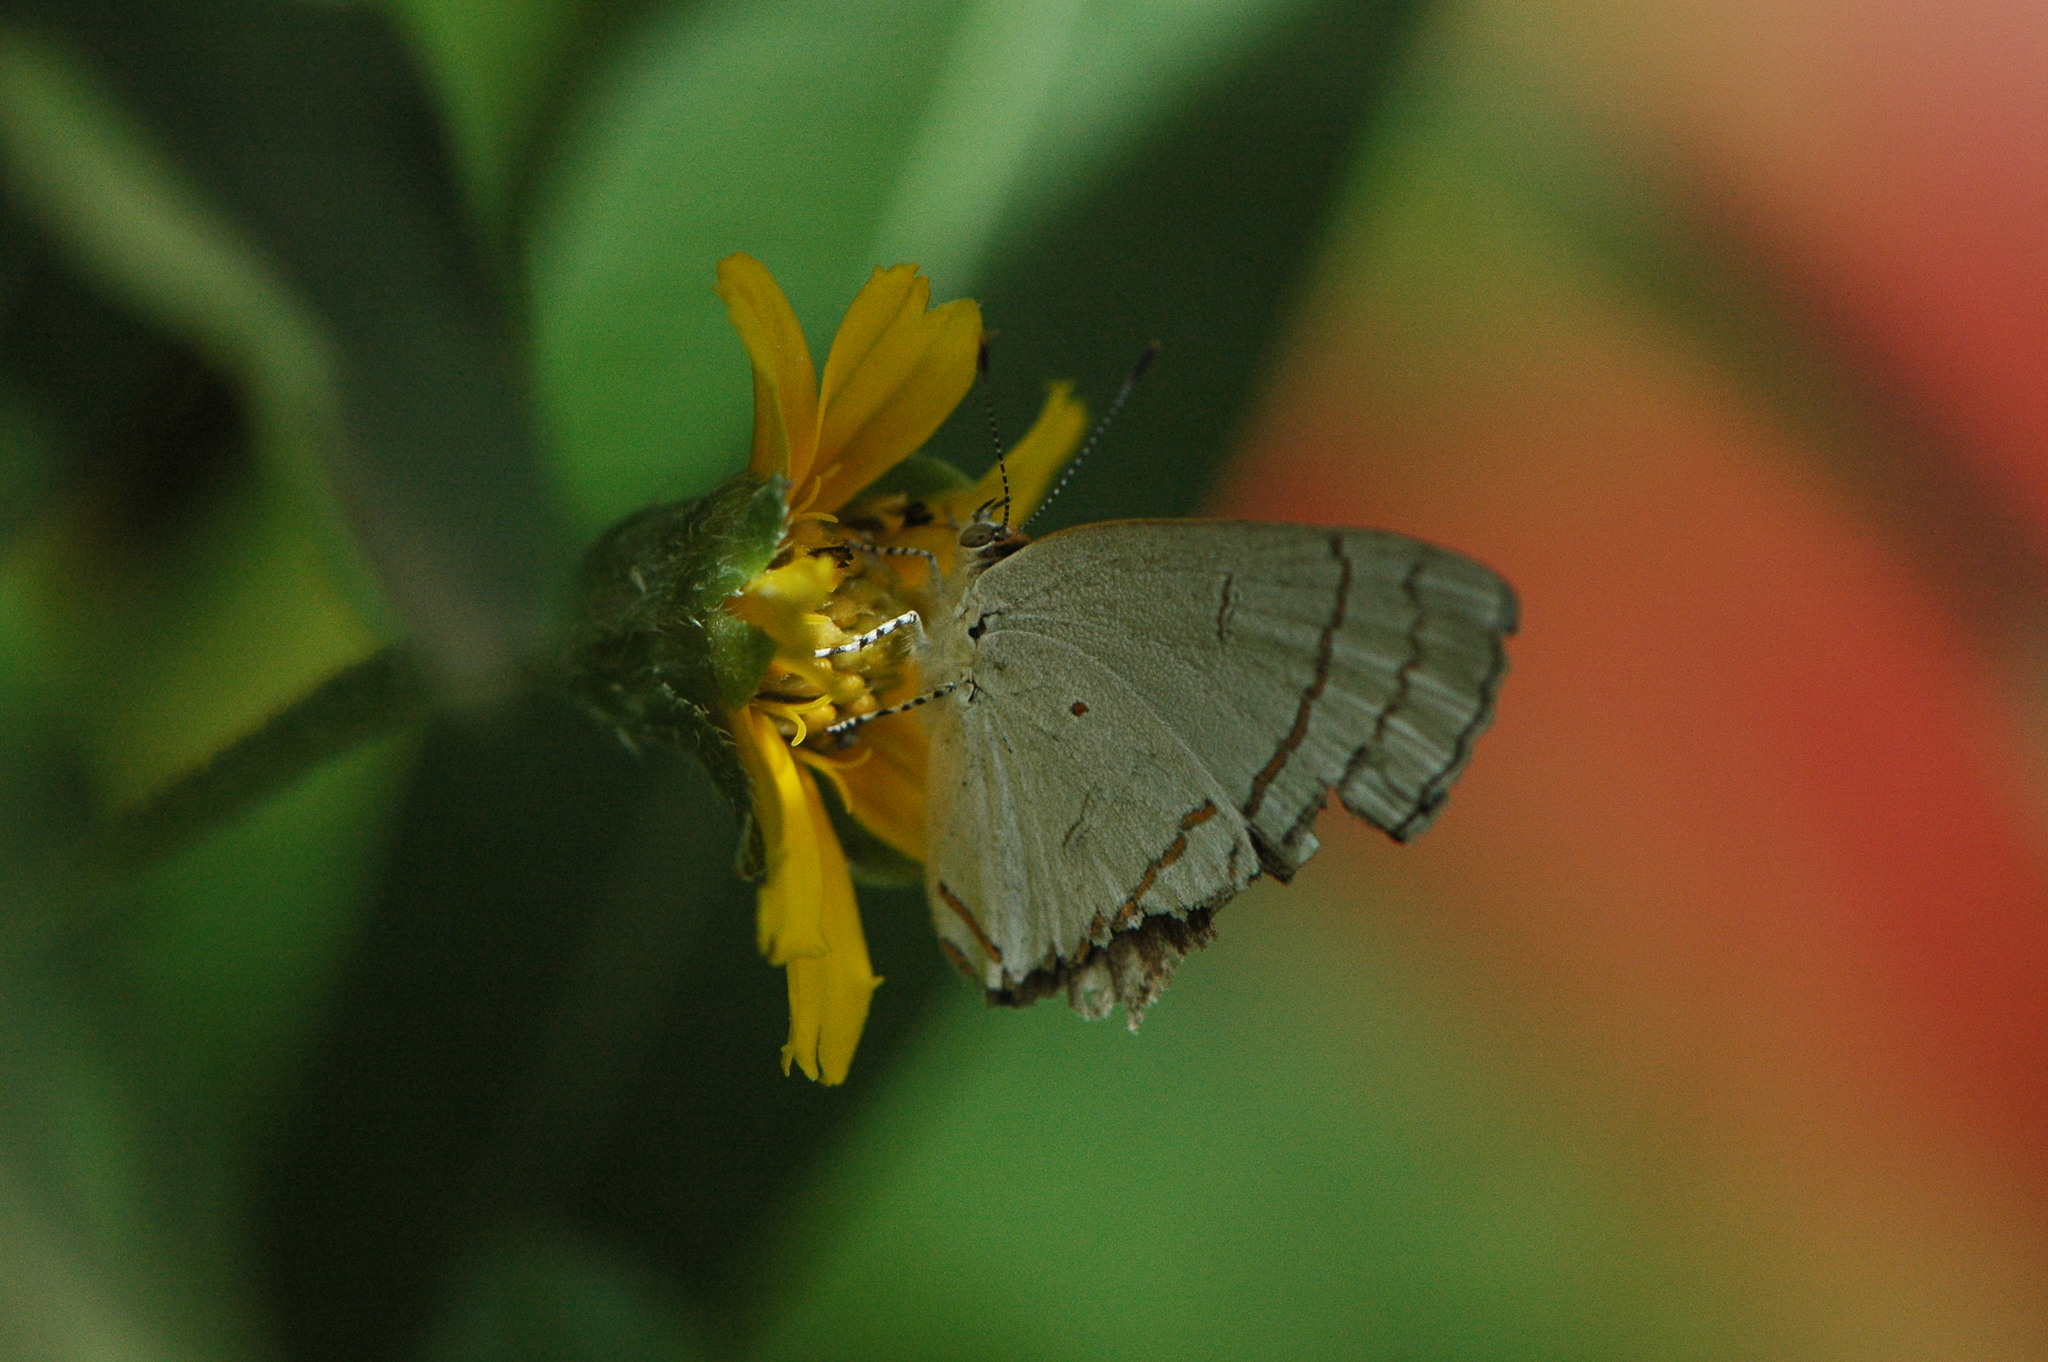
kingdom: Animalia
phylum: Arthropoda
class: Insecta
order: Lepidoptera
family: Lycaenidae
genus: Hypolycaena
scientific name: Hypolycaena philippus
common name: Common hairstreak
